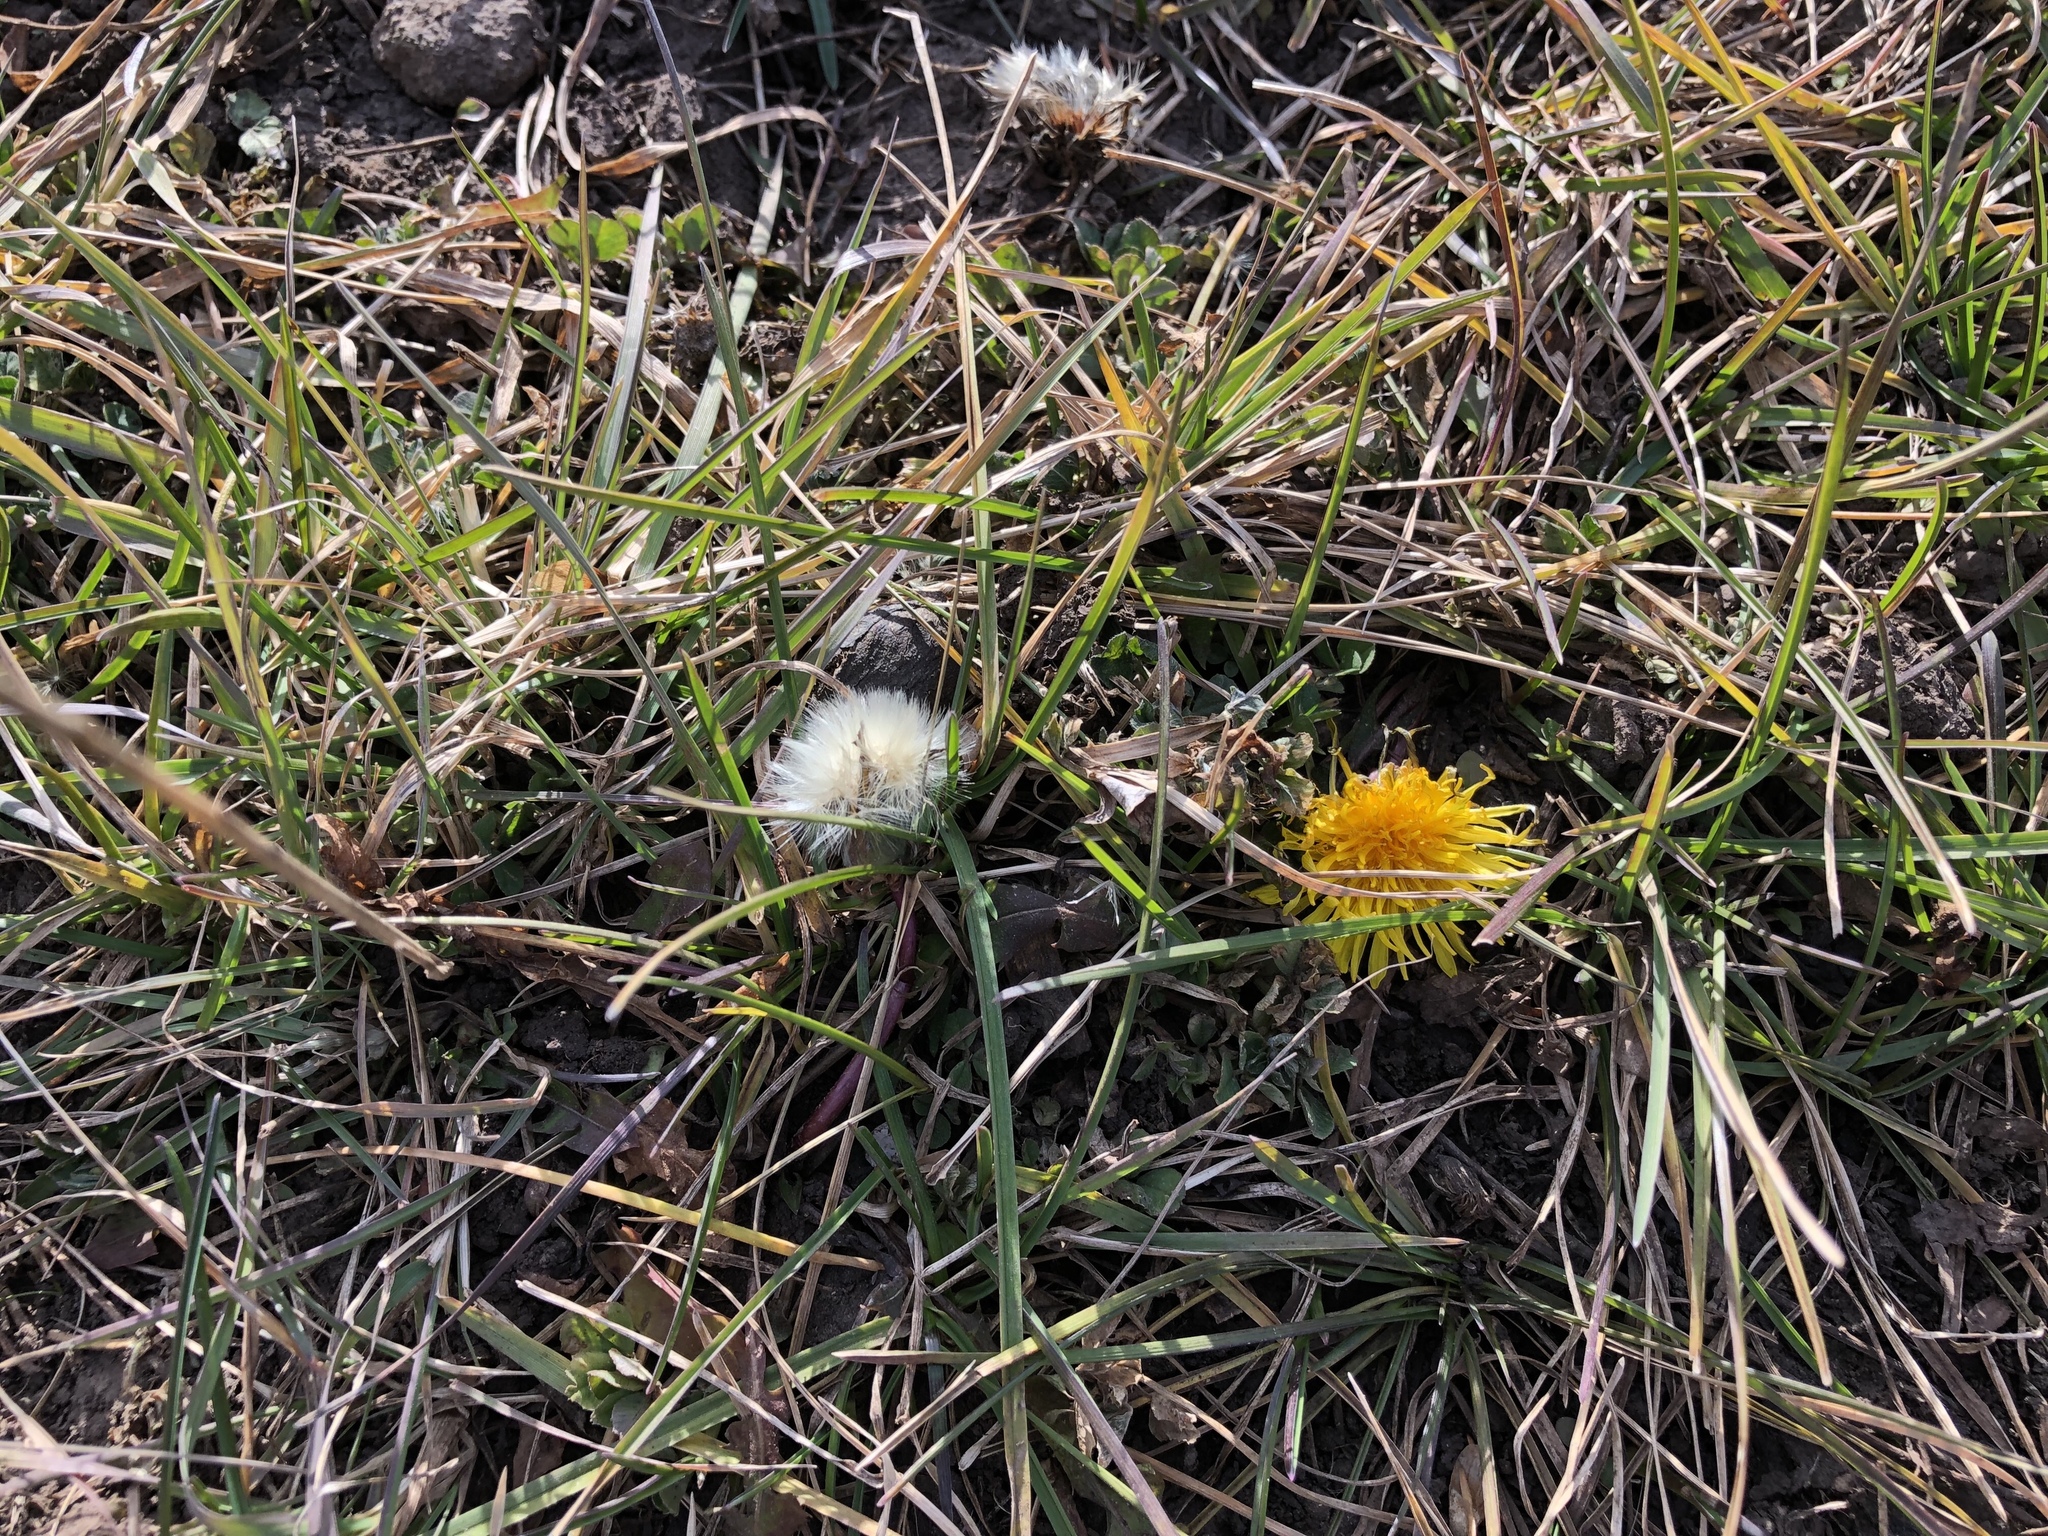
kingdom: Plantae
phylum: Tracheophyta
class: Magnoliopsida
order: Asterales
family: Asteraceae
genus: Taraxacum
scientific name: Taraxacum officinale
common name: Common dandelion
